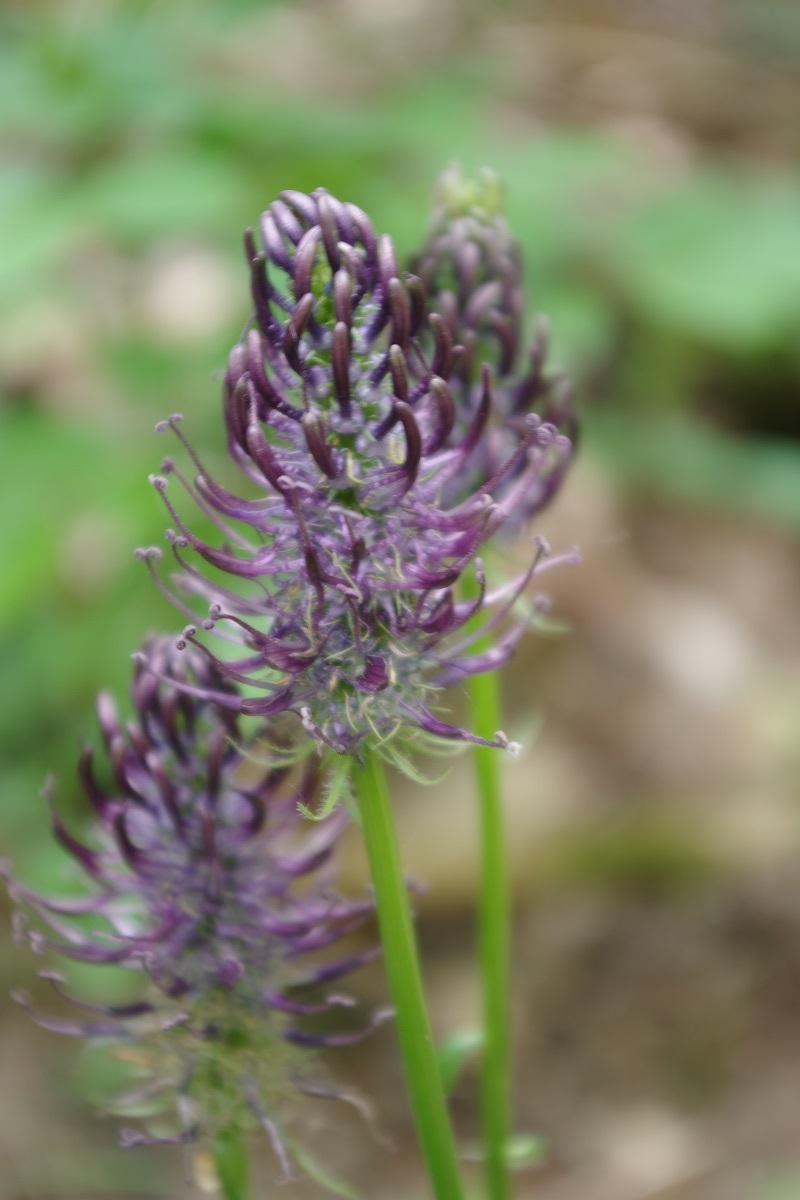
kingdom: Plantae
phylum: Tracheophyta
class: Magnoliopsida
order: Asterales
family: Campanulaceae
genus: Phyteuma
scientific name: Phyteuma nigrum
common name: Black rampion
